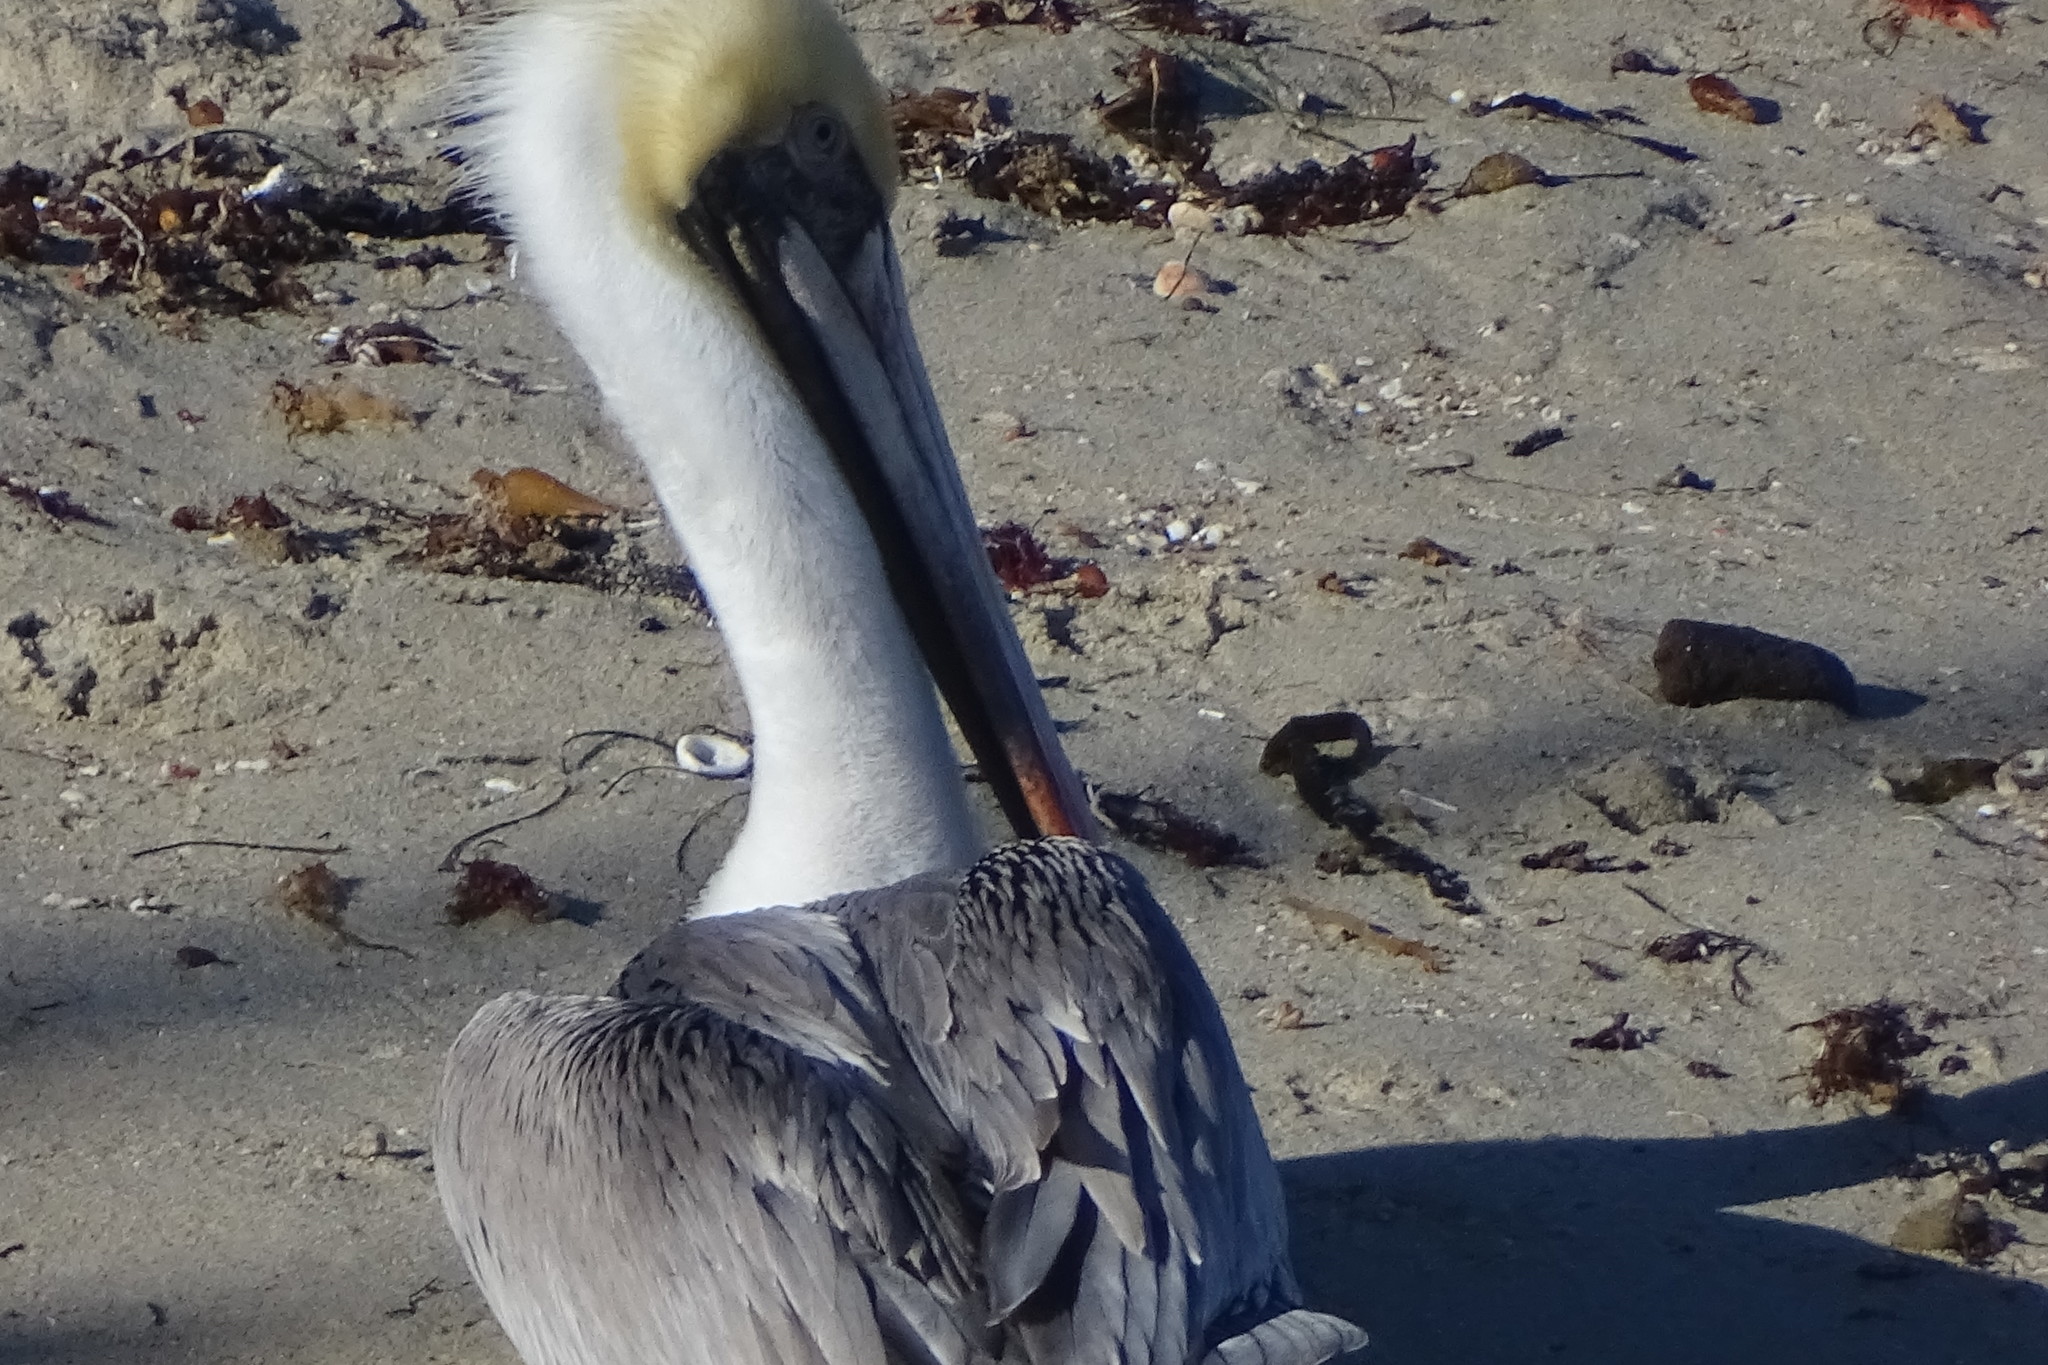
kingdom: Animalia
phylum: Chordata
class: Aves
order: Pelecaniformes
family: Pelecanidae
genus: Pelecanus
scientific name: Pelecanus occidentalis
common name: Brown pelican
